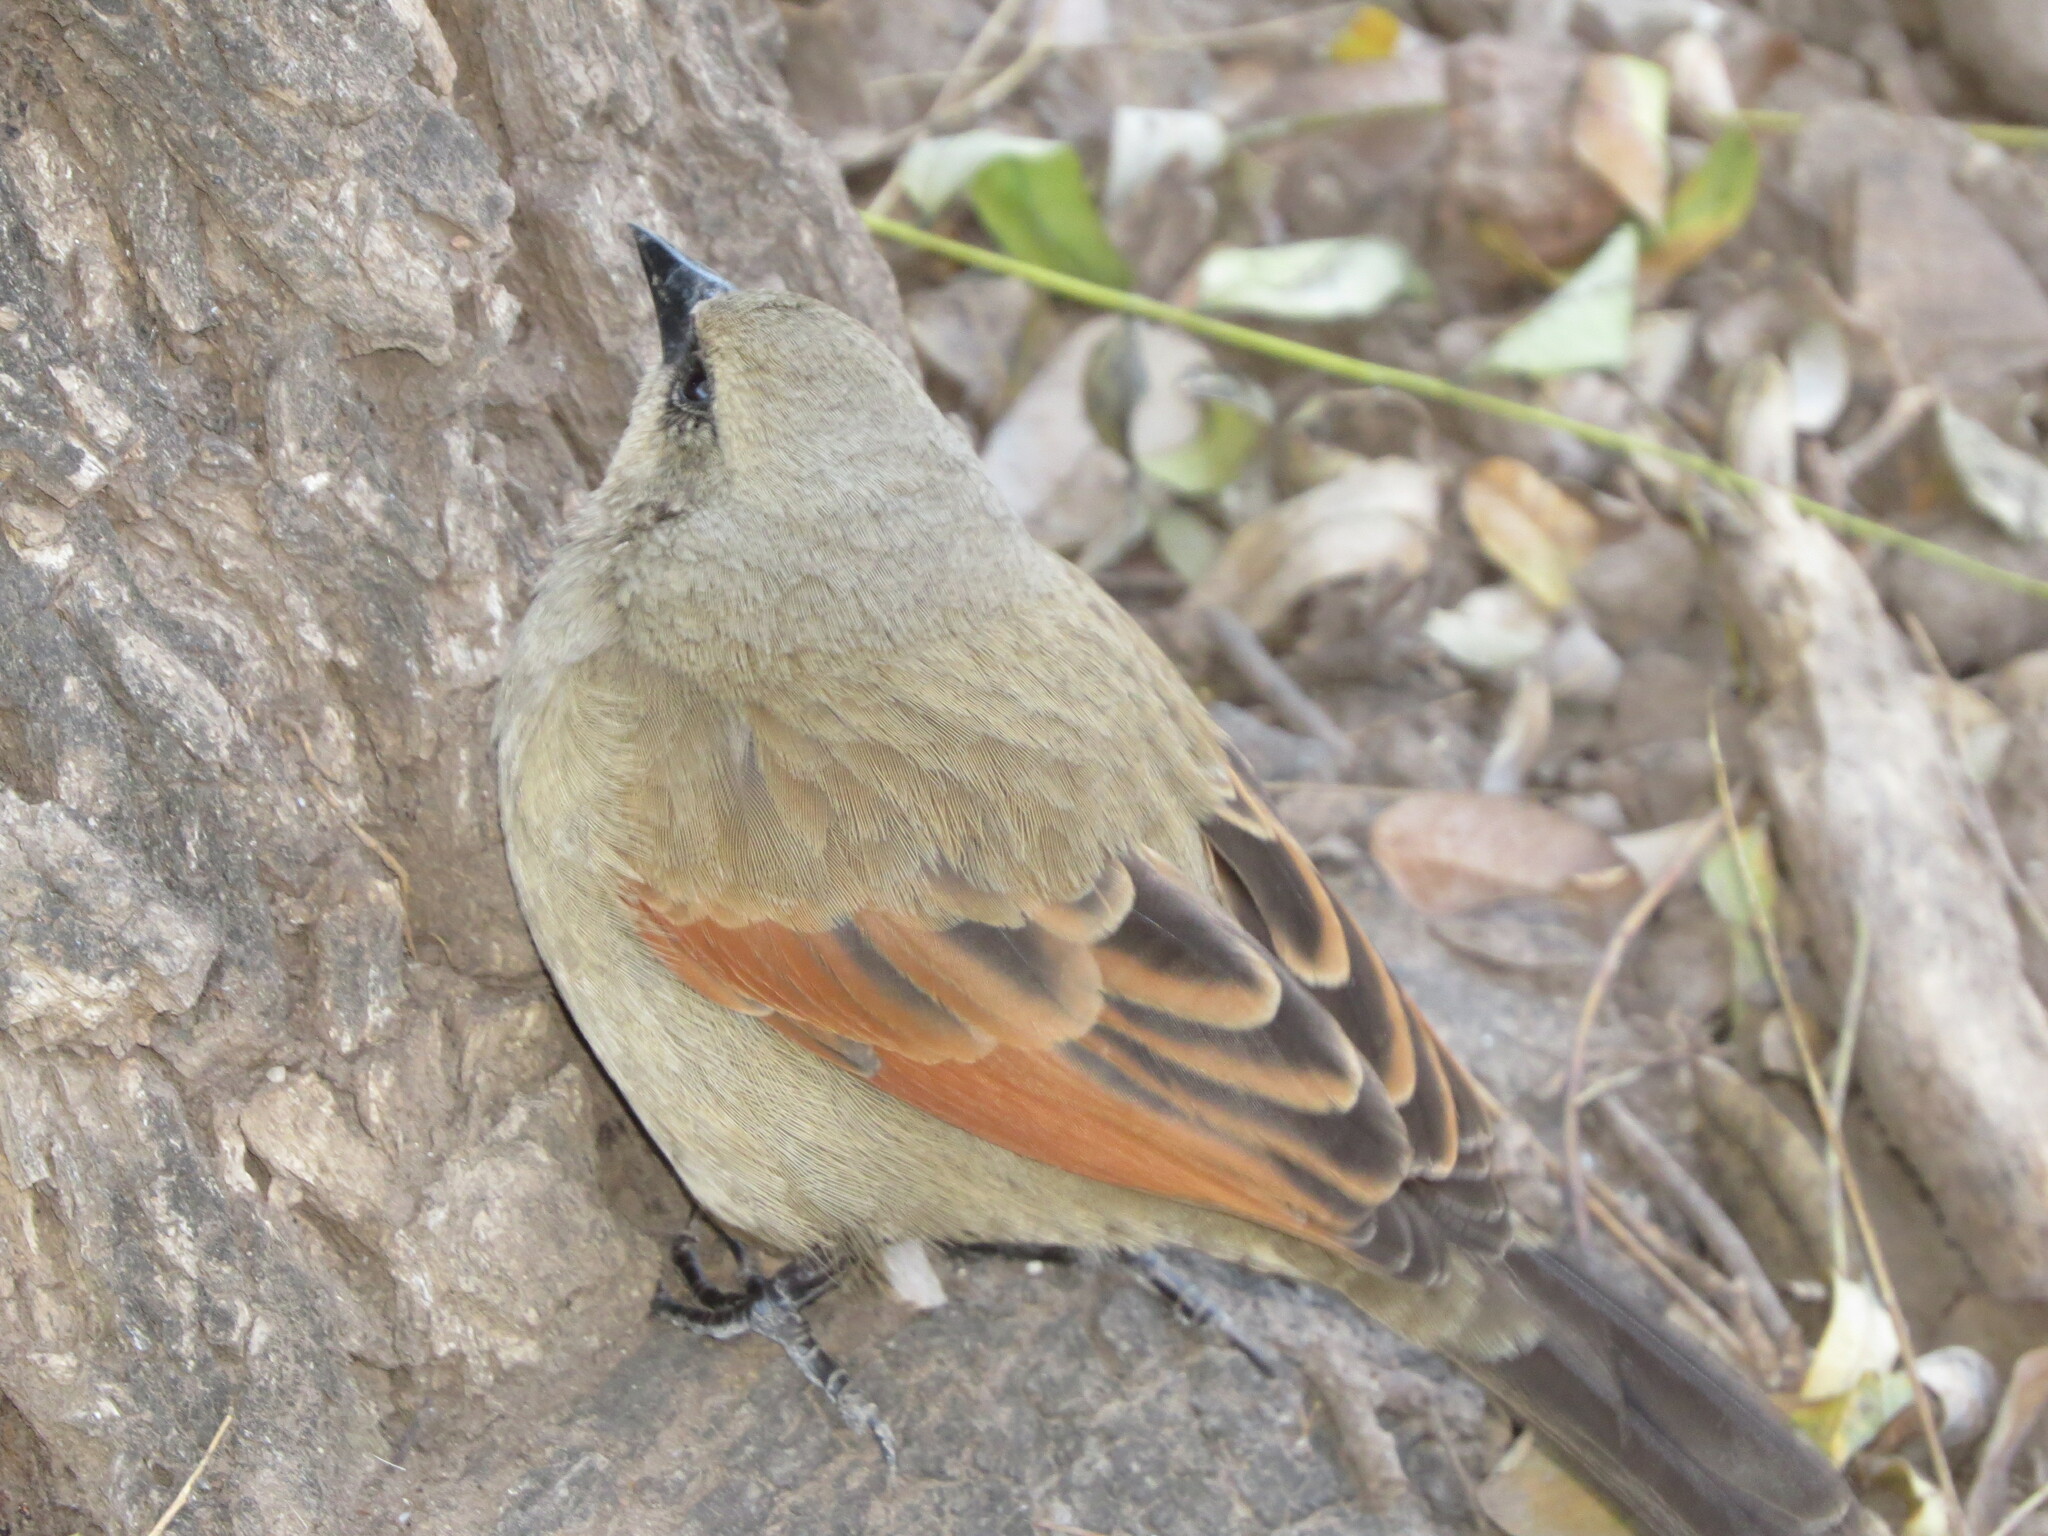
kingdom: Animalia
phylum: Chordata
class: Aves
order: Passeriformes
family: Icteridae
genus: Agelaioides
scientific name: Agelaioides badius
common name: Baywing
